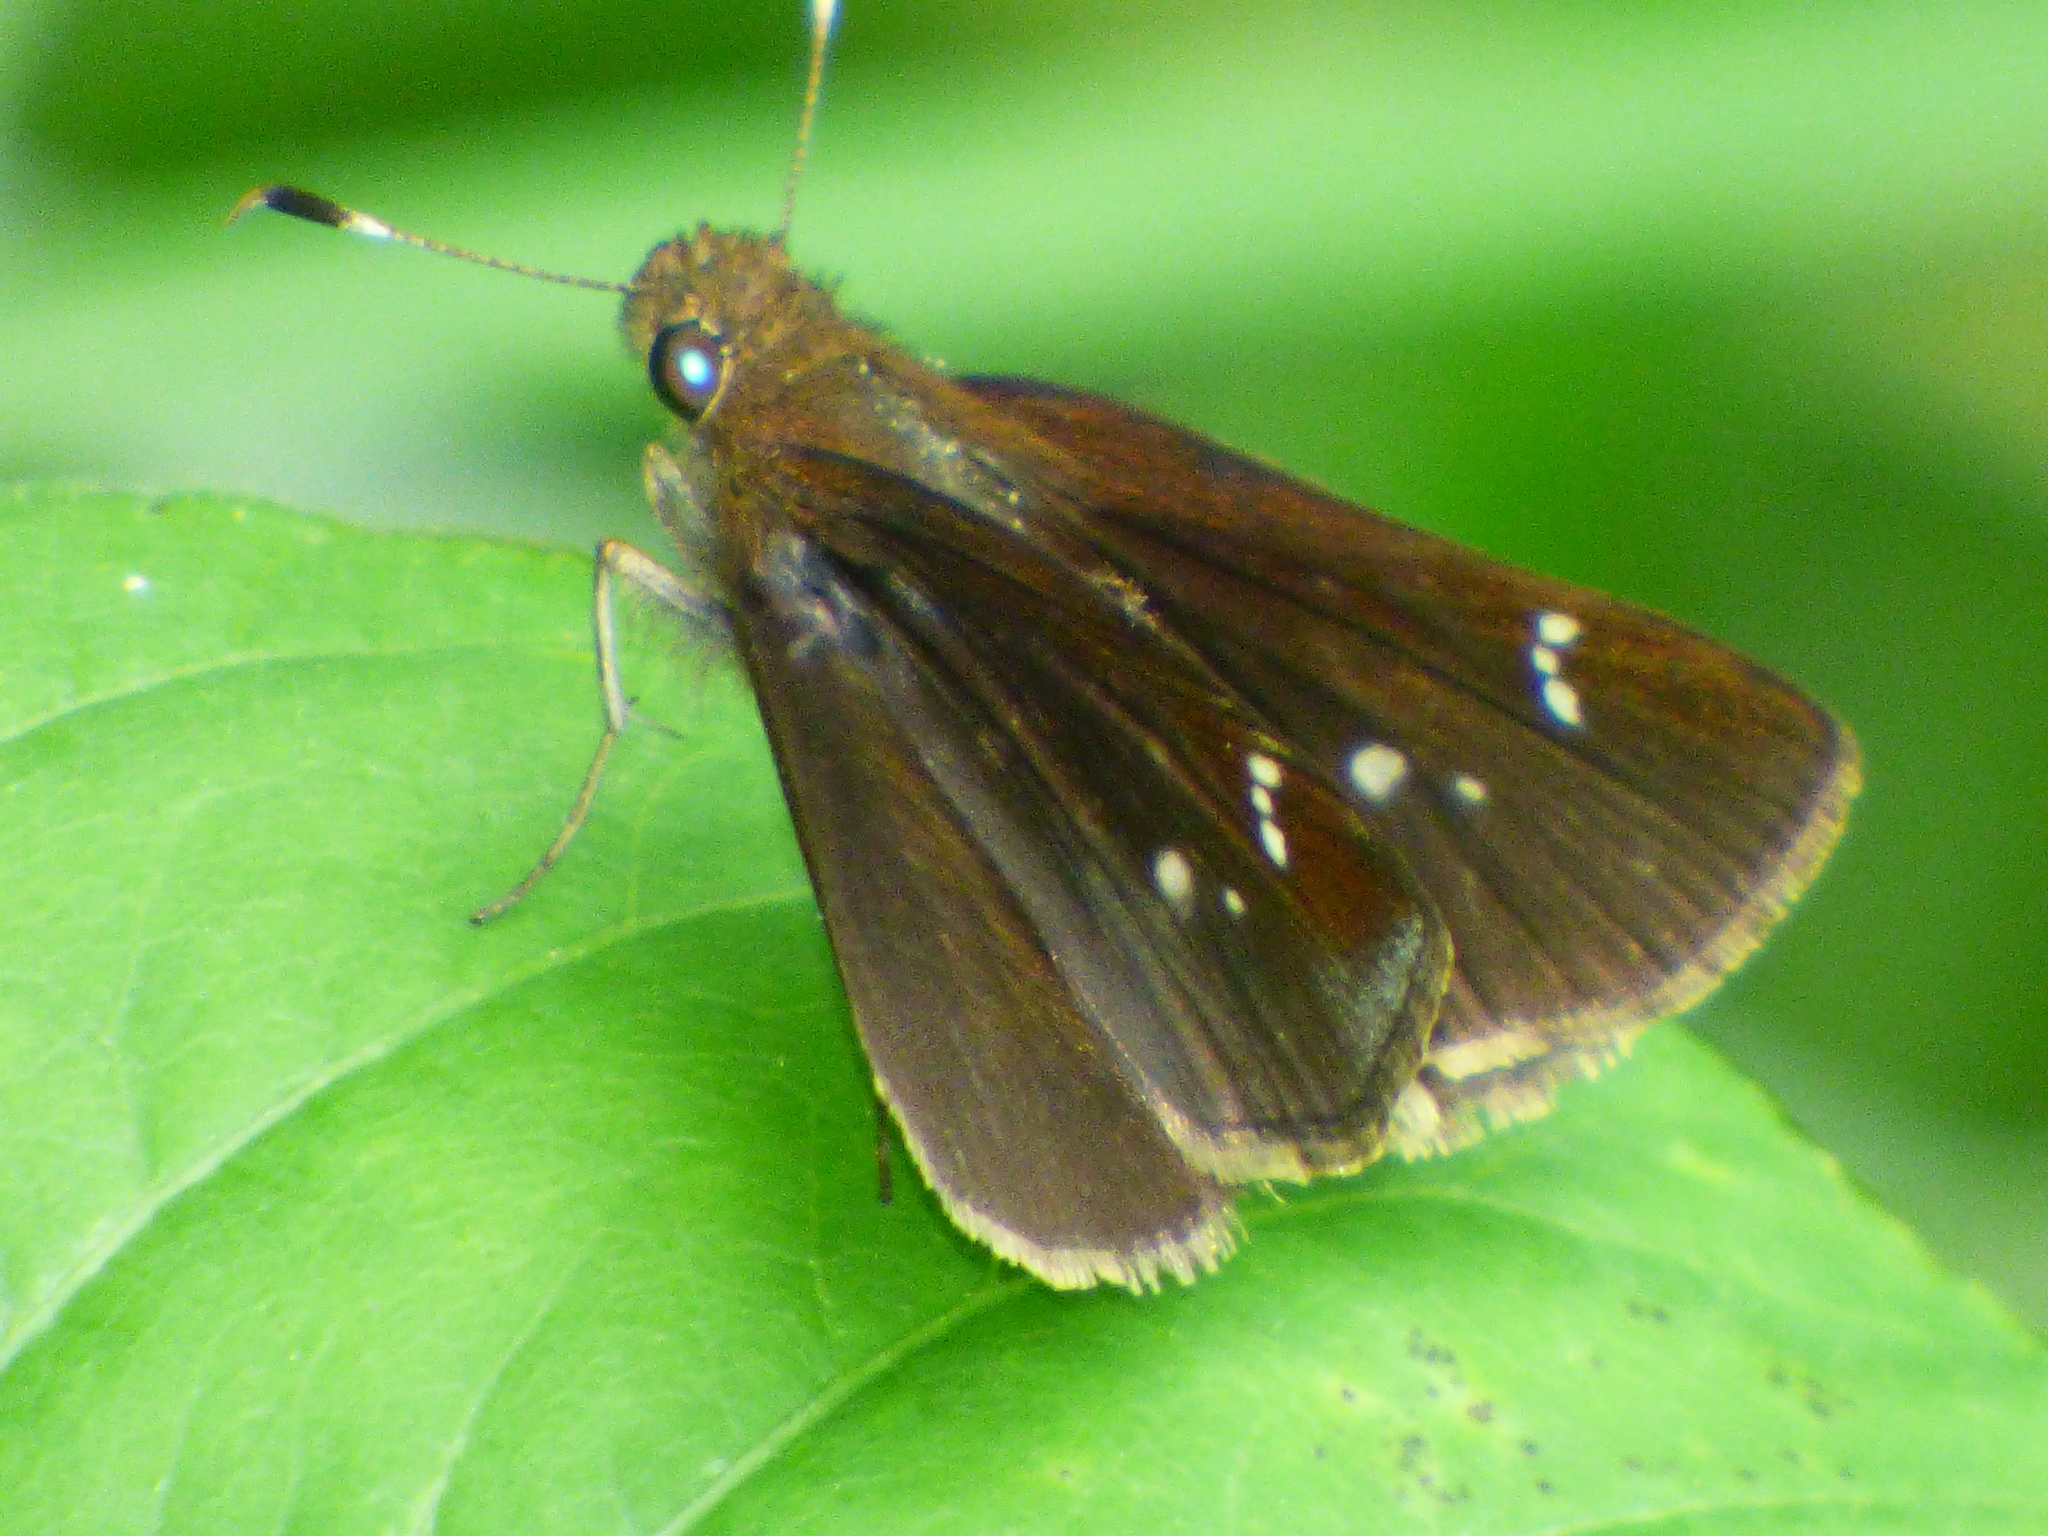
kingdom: Animalia
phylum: Arthropoda
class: Insecta
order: Lepidoptera
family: Hesperiidae
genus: Lerema
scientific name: Lerema accius
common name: Clouded skipper
